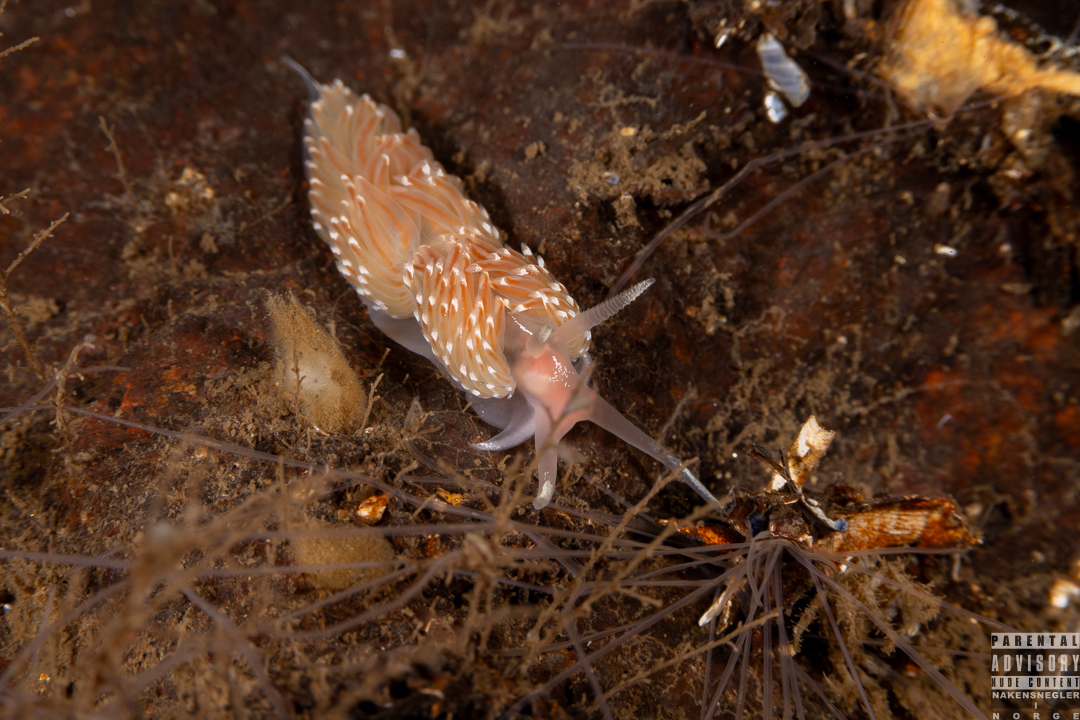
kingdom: Animalia
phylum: Mollusca
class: Gastropoda
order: Nudibranchia
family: Facelinidae
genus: Facelina
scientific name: Facelina bostoniensis
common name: Boston facelina
